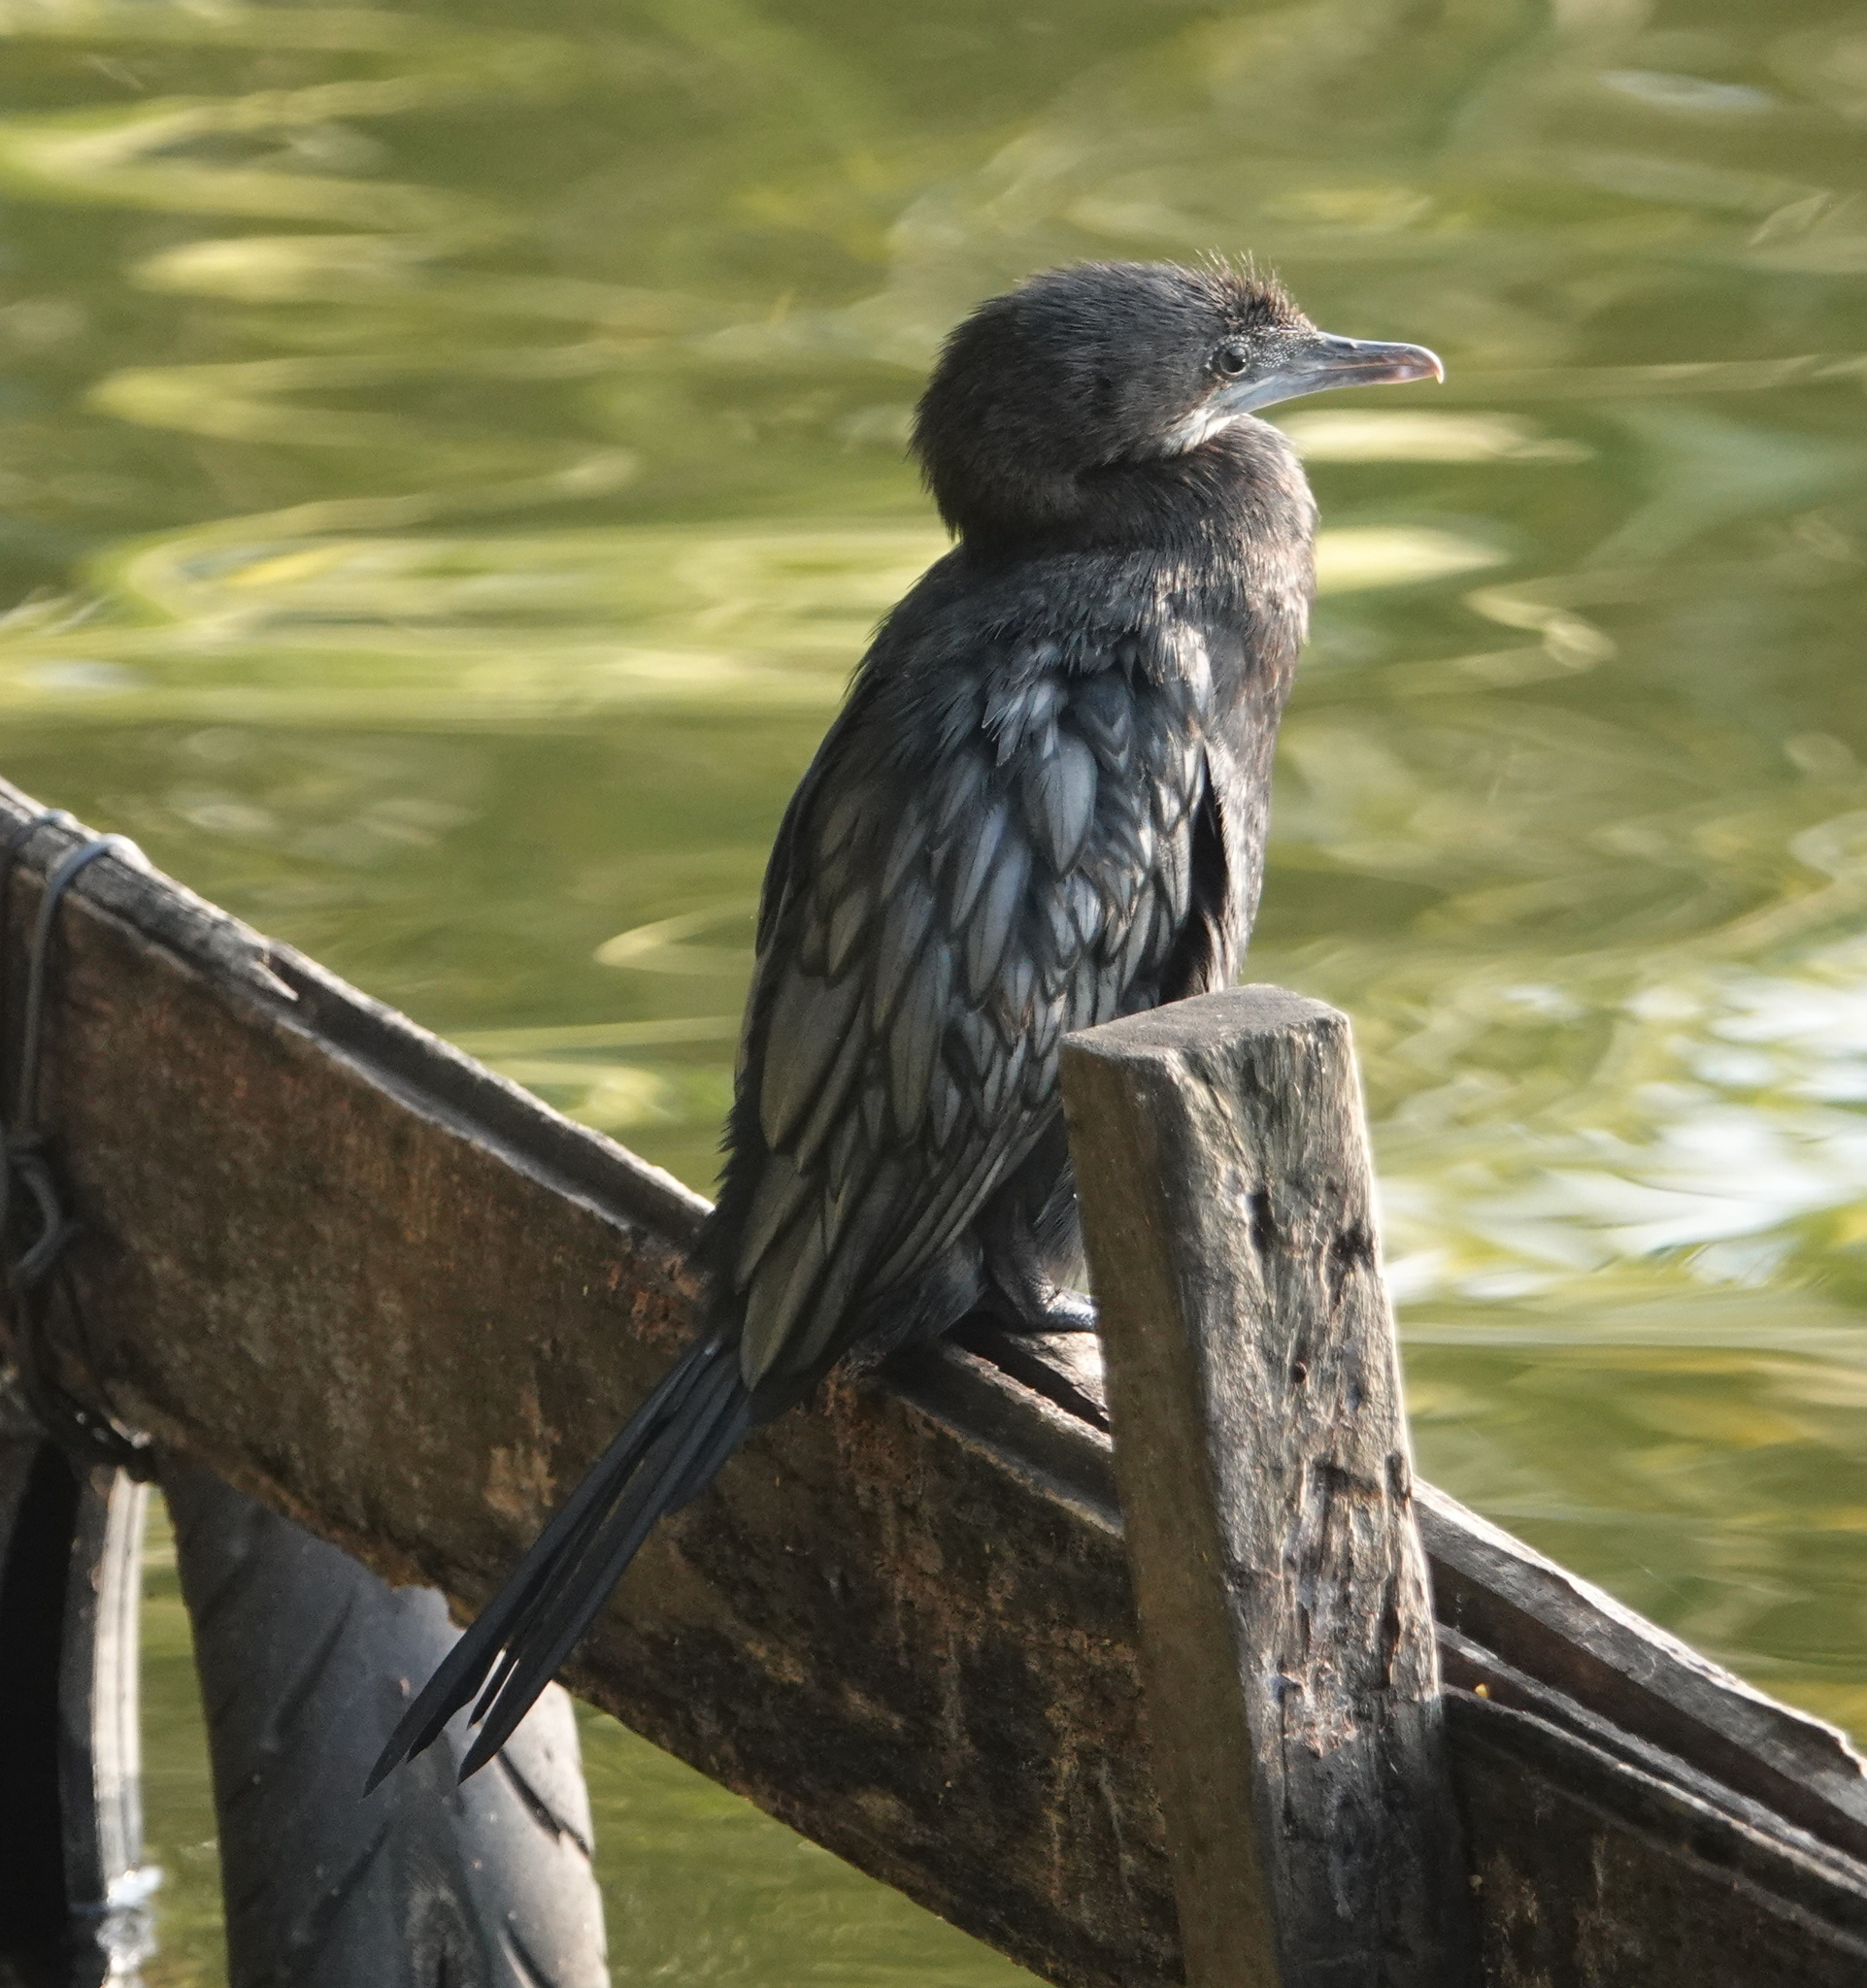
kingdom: Animalia
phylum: Chordata
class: Aves
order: Suliformes
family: Phalacrocoracidae
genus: Microcarbo
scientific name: Microcarbo niger
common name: Little cormorant
